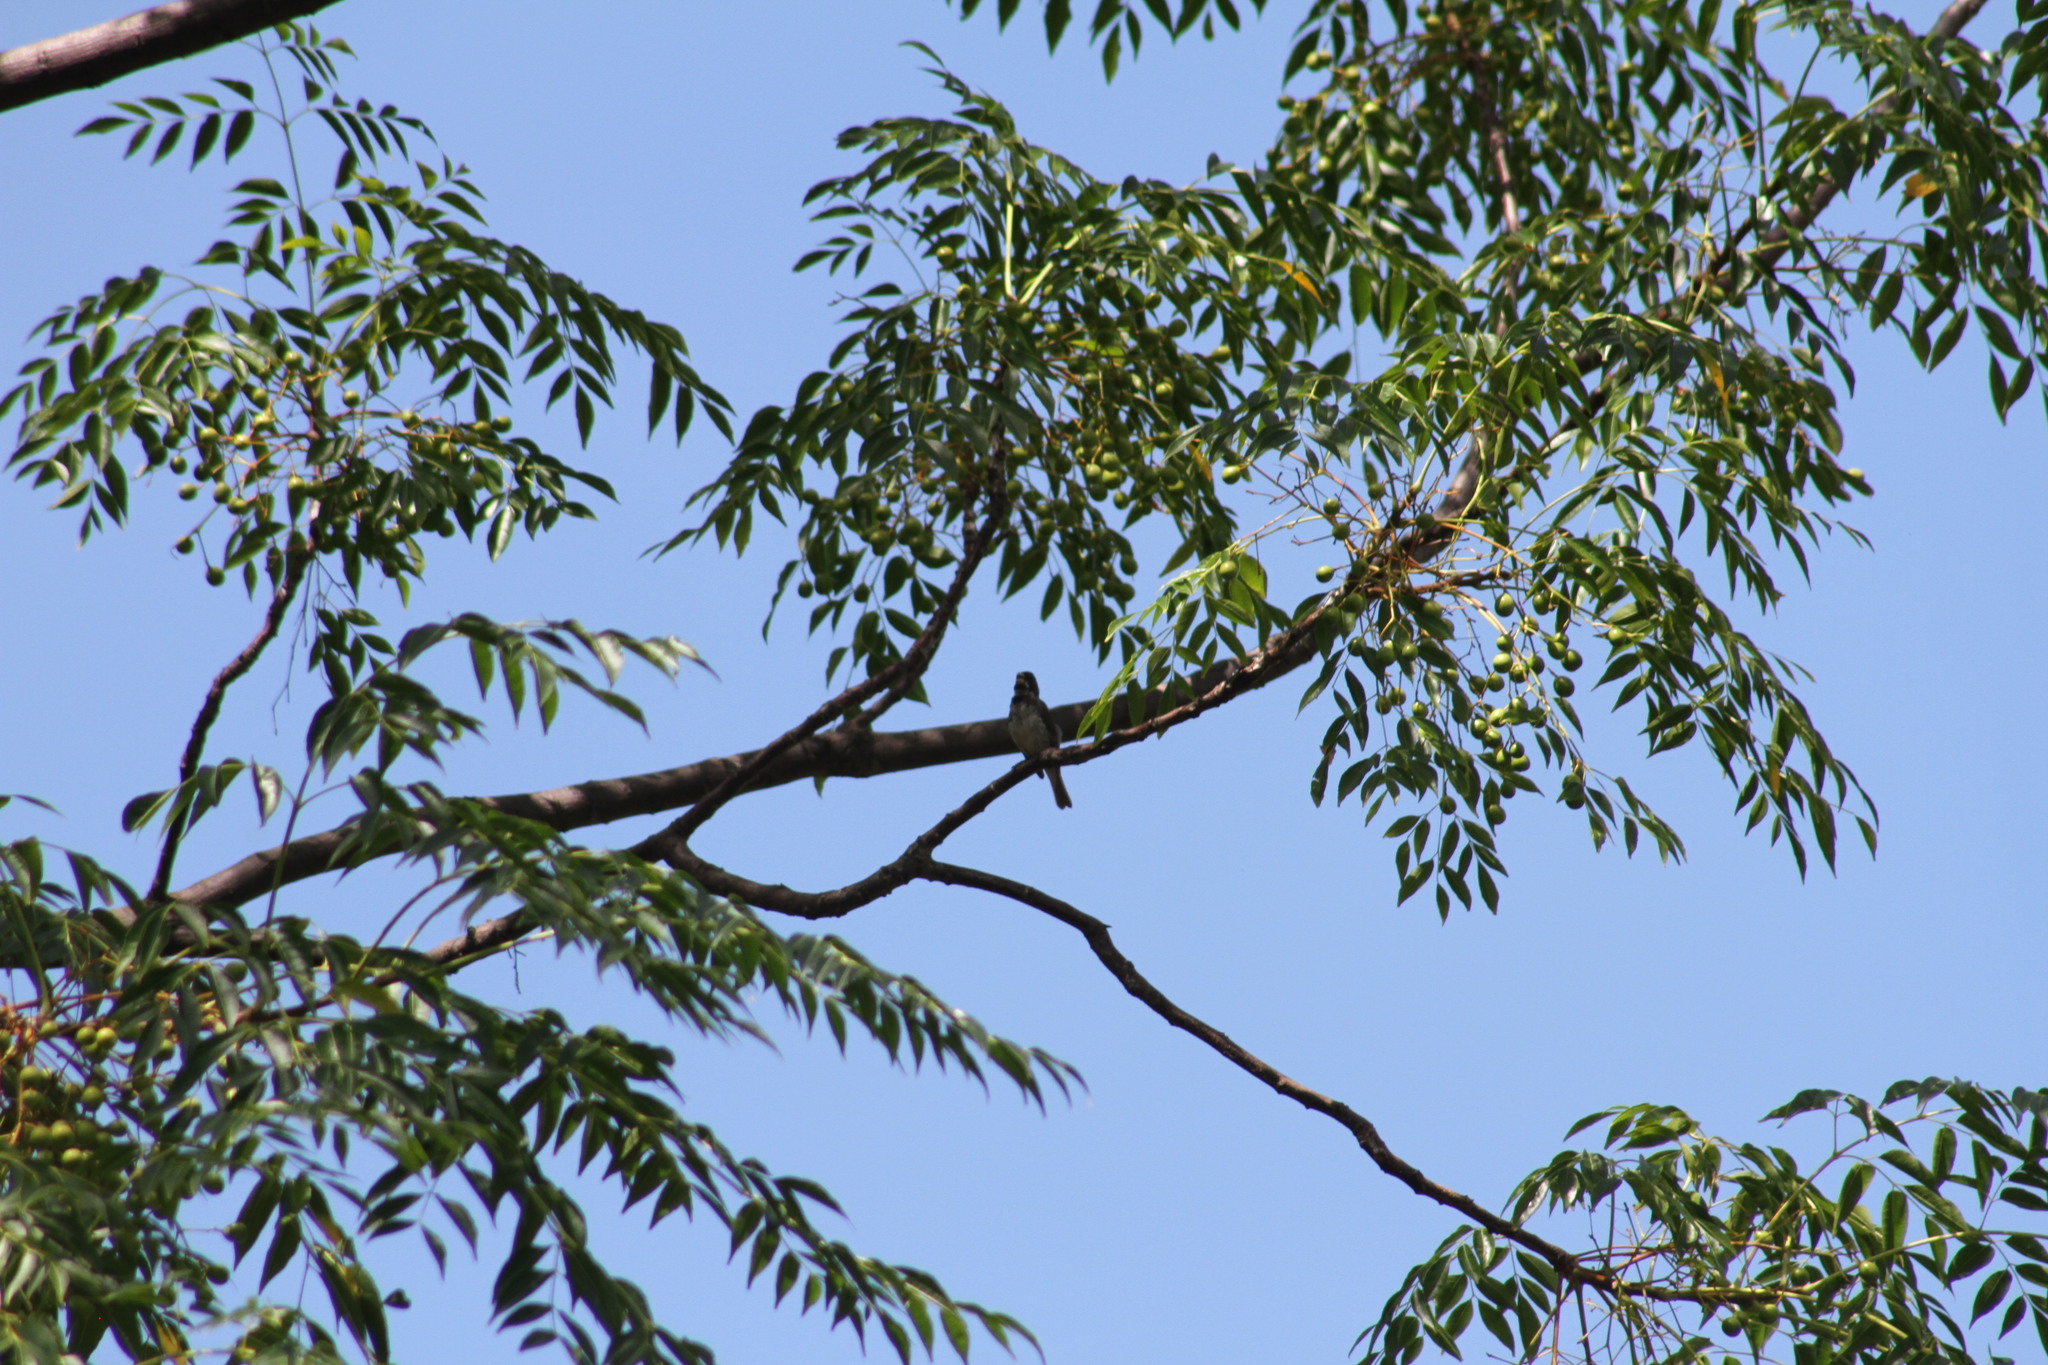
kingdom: Animalia
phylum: Chordata
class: Aves
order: Passeriformes
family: Thraupidae
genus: Sporophila
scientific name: Sporophila caerulescens
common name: Double-collared seedeater
